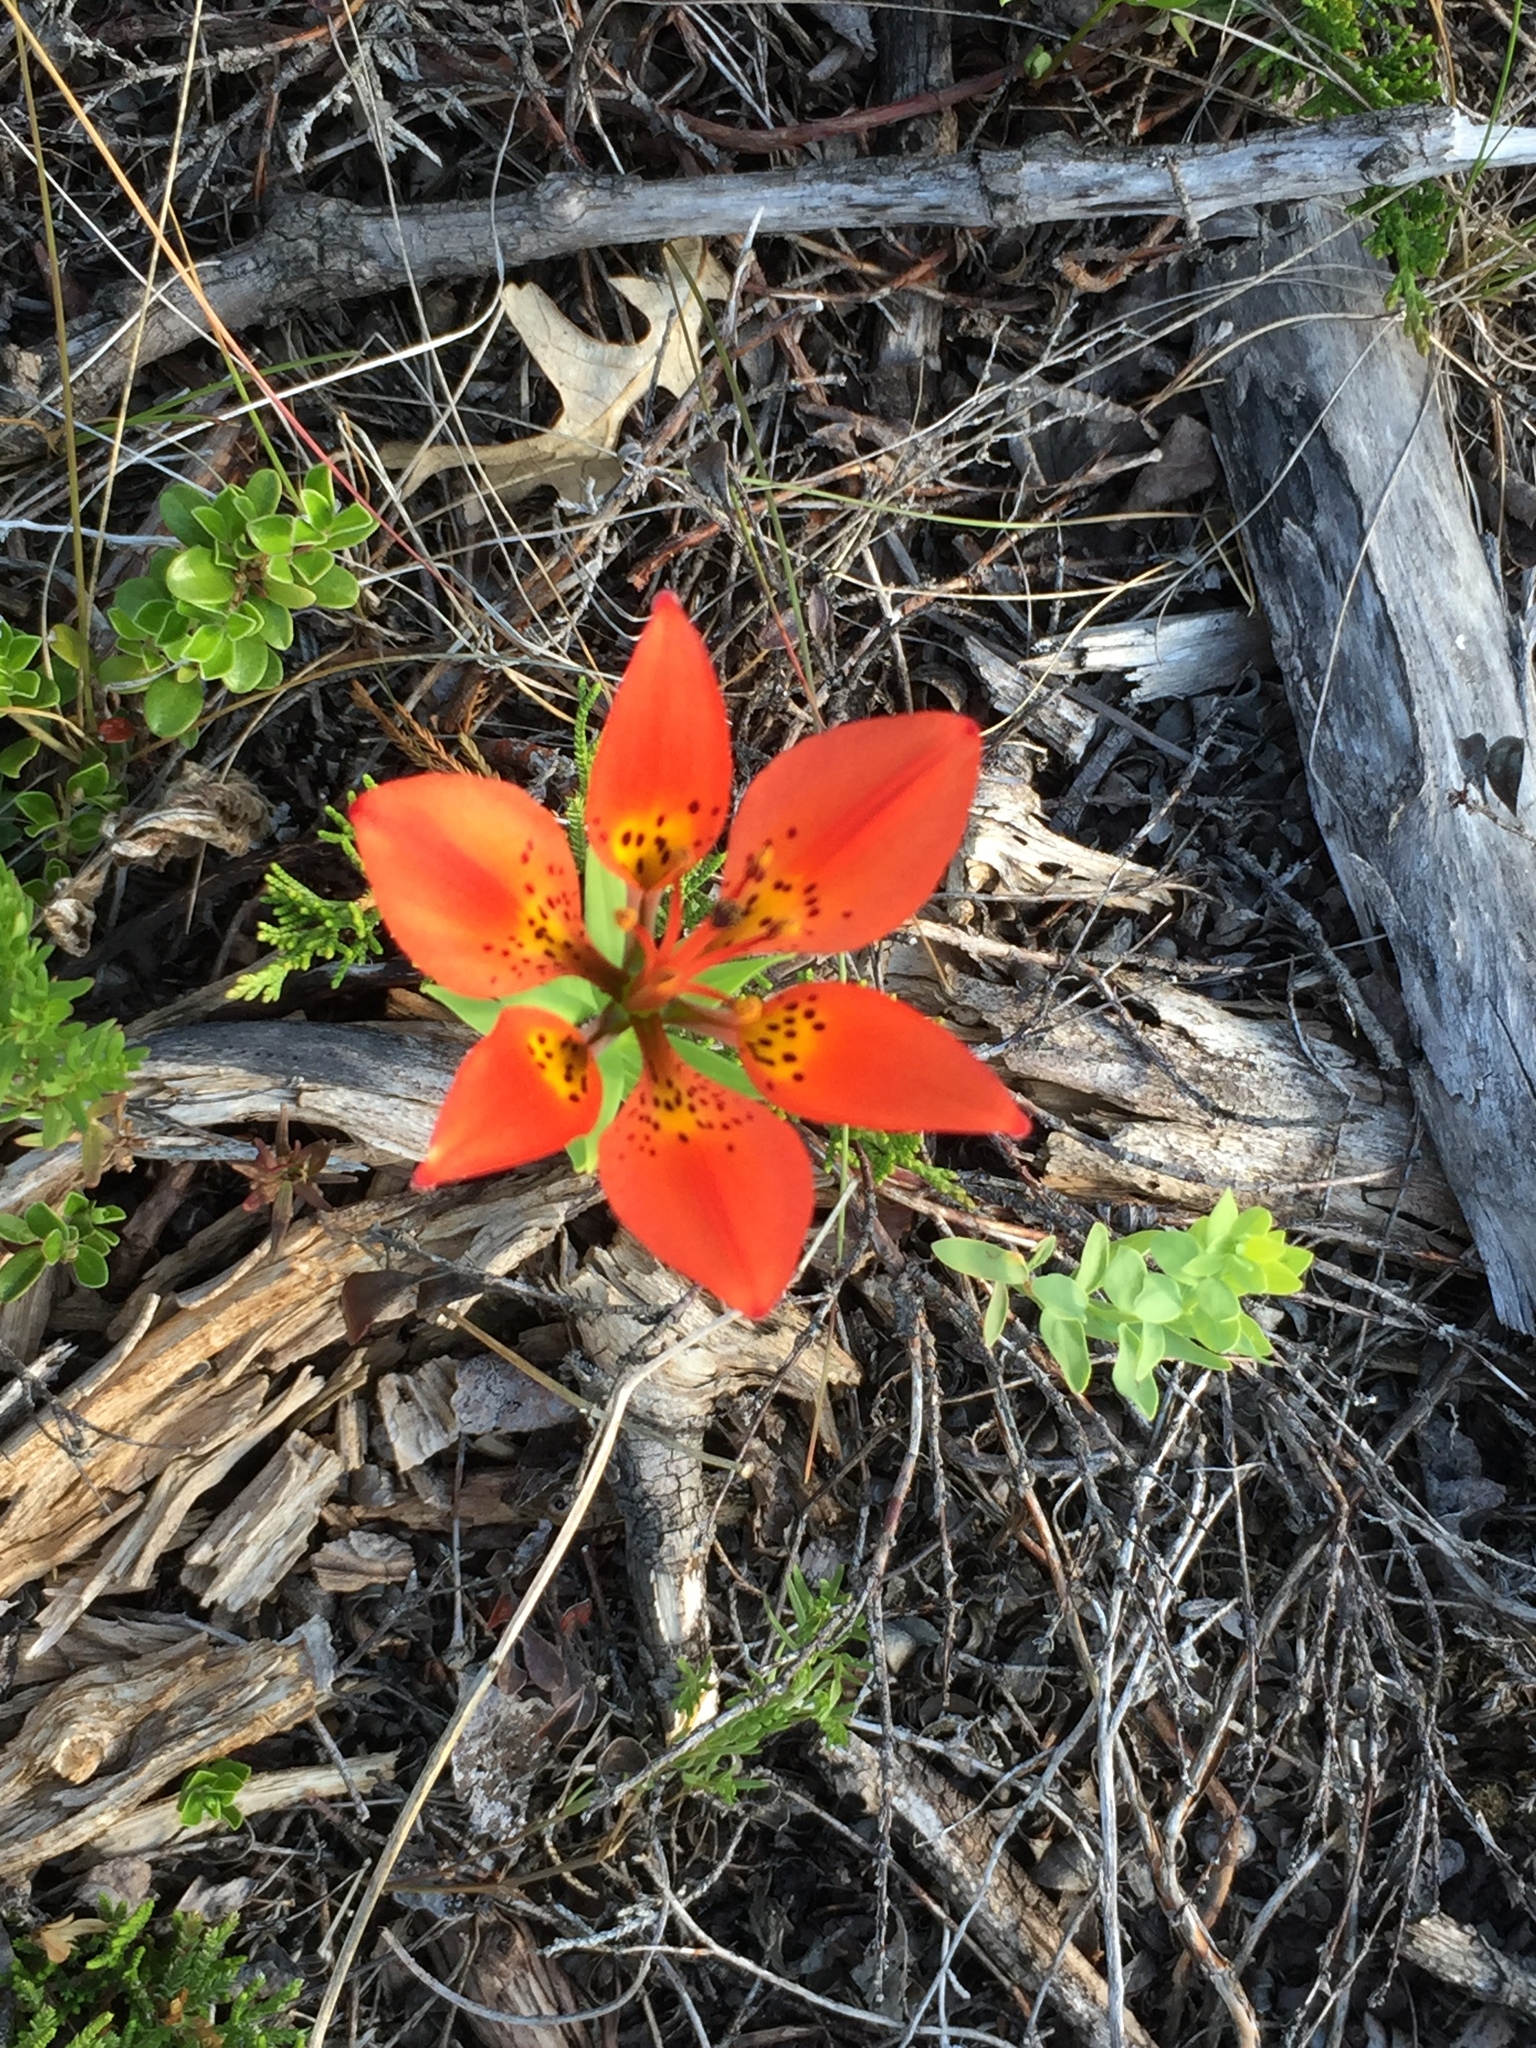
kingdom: Plantae
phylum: Tracheophyta
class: Liliopsida
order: Liliales
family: Liliaceae
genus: Lilium
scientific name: Lilium philadelphicum
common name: Red lily
